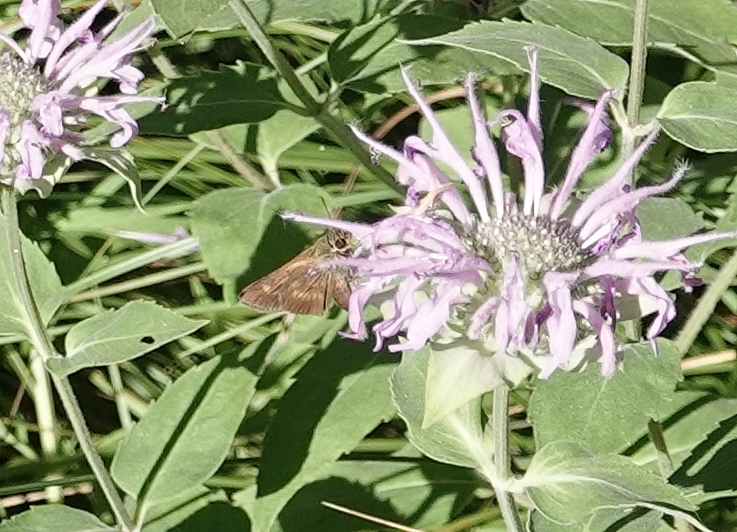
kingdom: Animalia
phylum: Arthropoda
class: Insecta
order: Lepidoptera
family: Hesperiidae
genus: Euphyes
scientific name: Euphyes vestris
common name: Dun skipper
